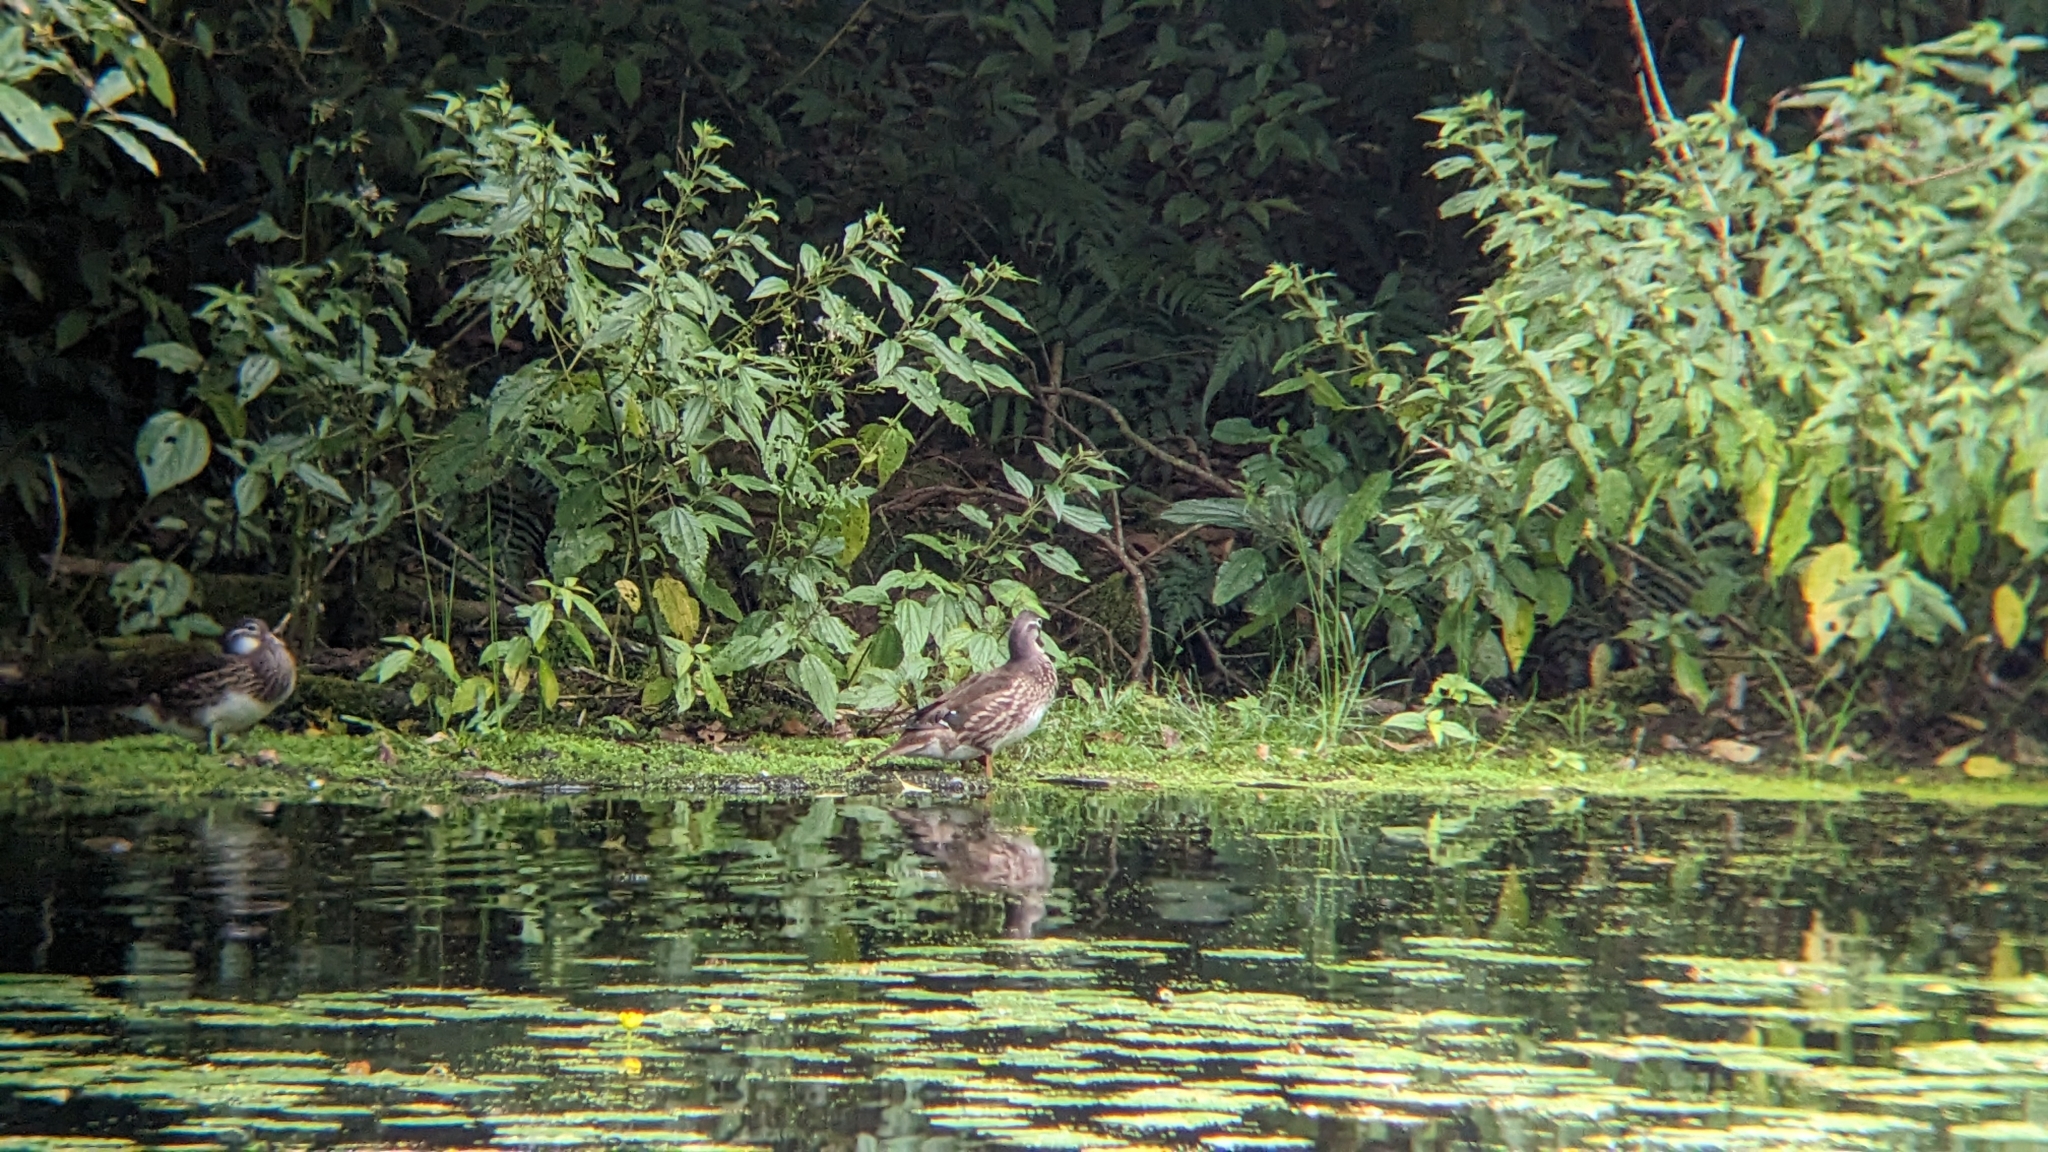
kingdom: Animalia
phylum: Chordata
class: Aves
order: Anseriformes
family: Anatidae
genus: Aix
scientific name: Aix galericulata
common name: Mandarin duck
